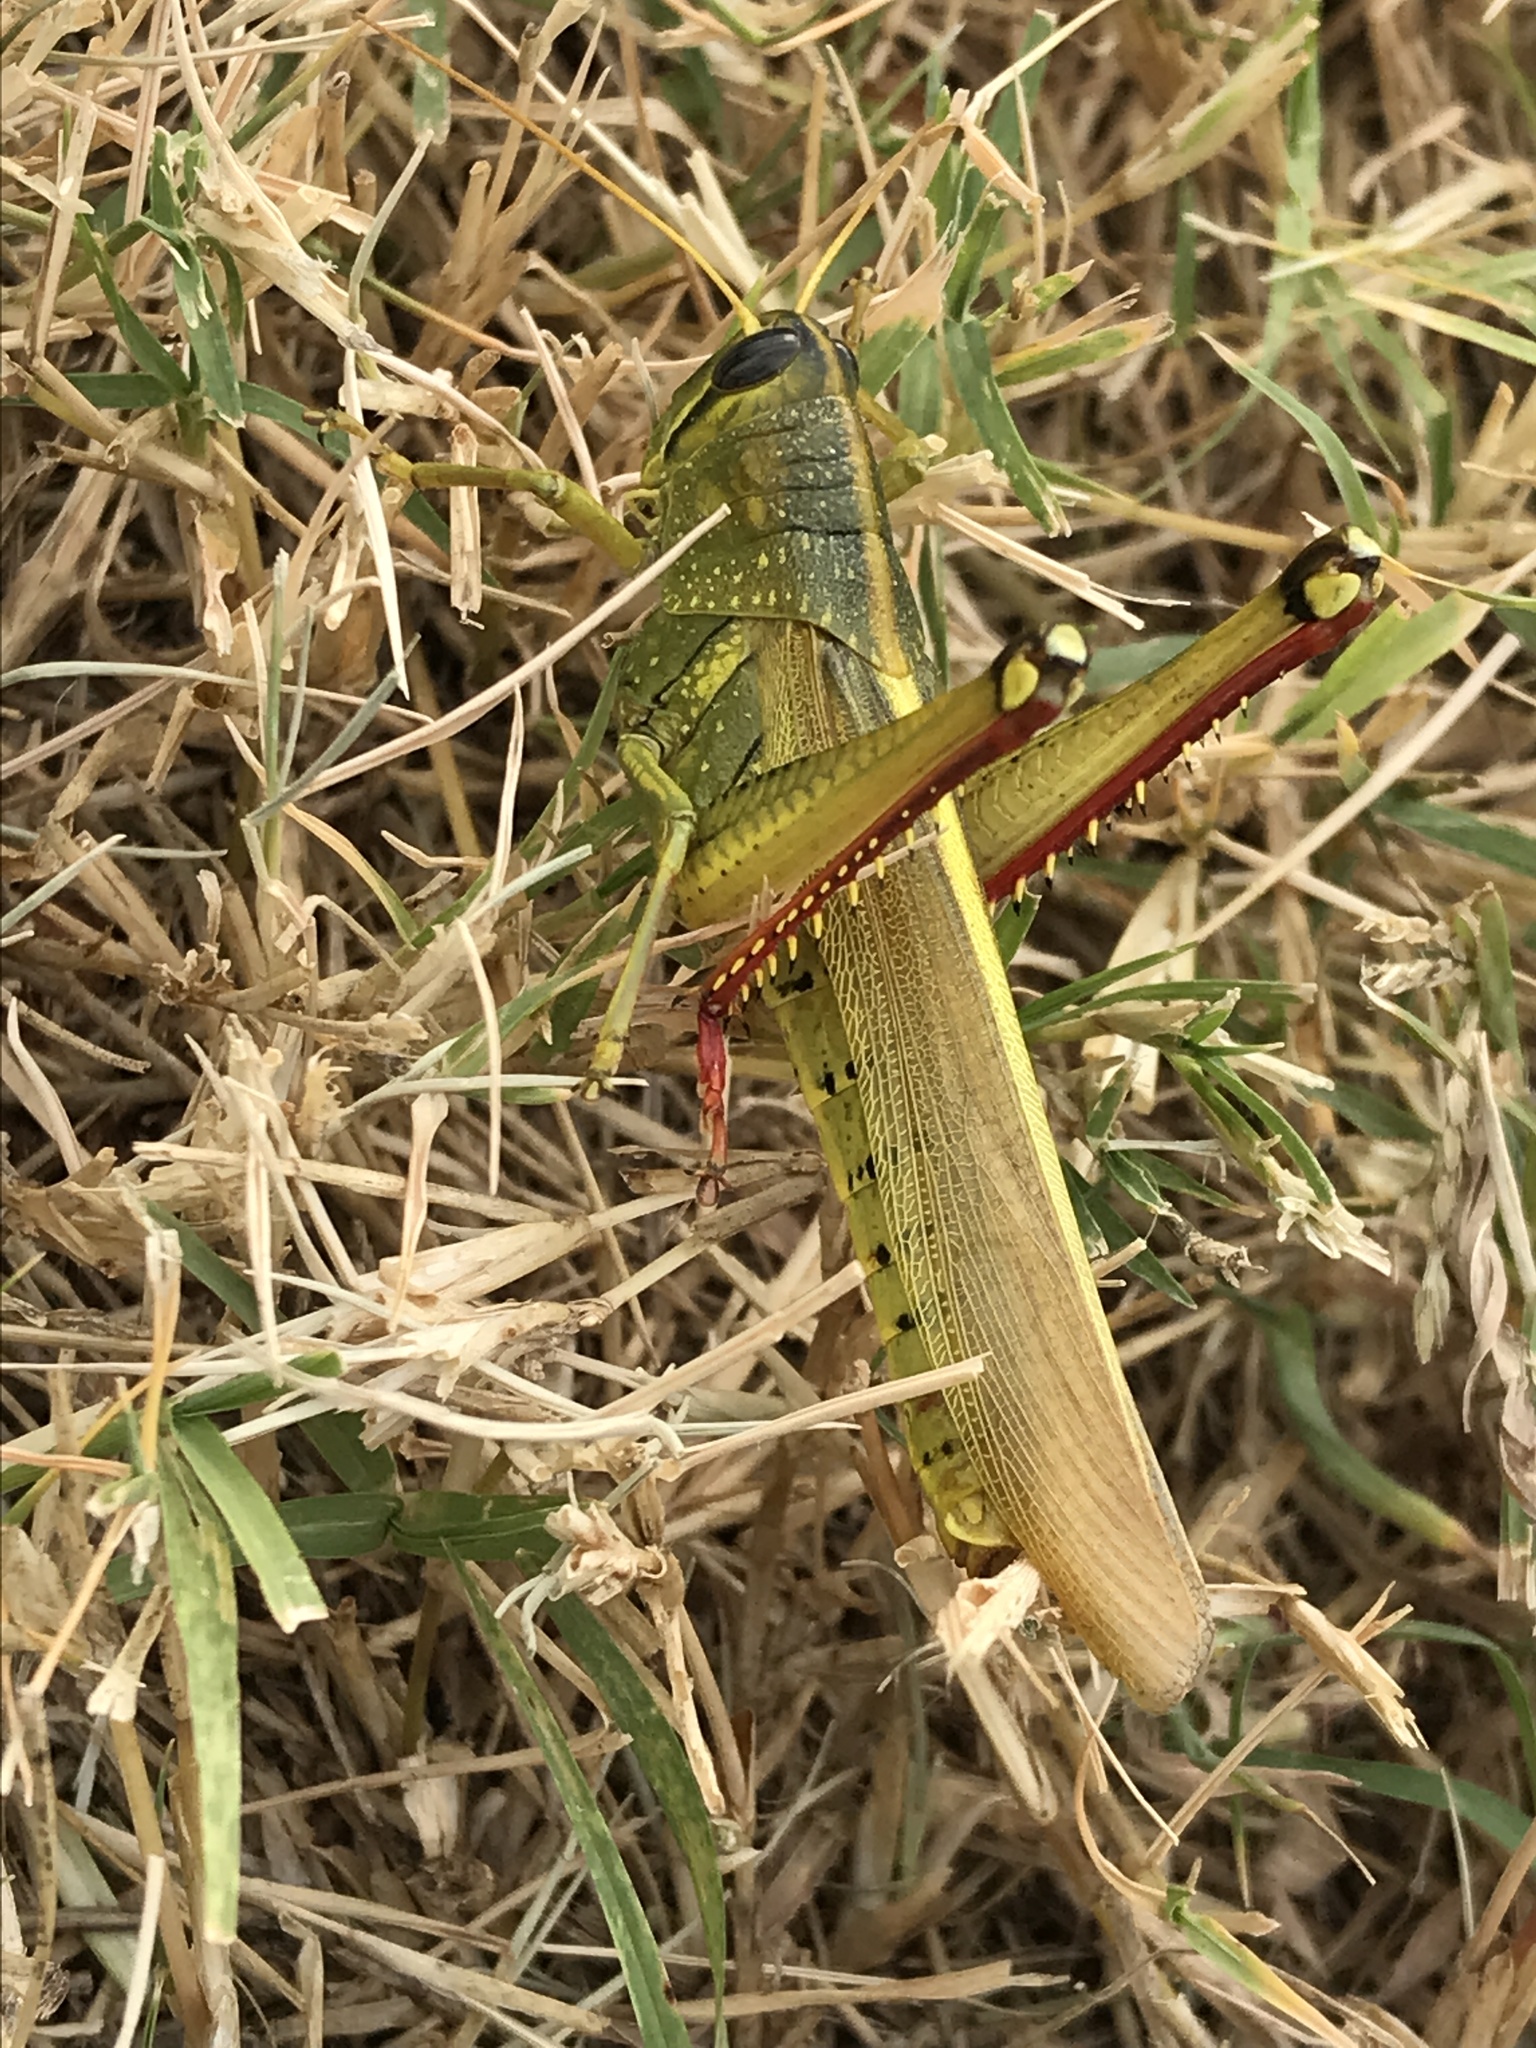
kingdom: Animalia
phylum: Arthropoda
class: Insecta
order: Orthoptera
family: Acrididae
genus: Schistocerca
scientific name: Schistocerca lineata
